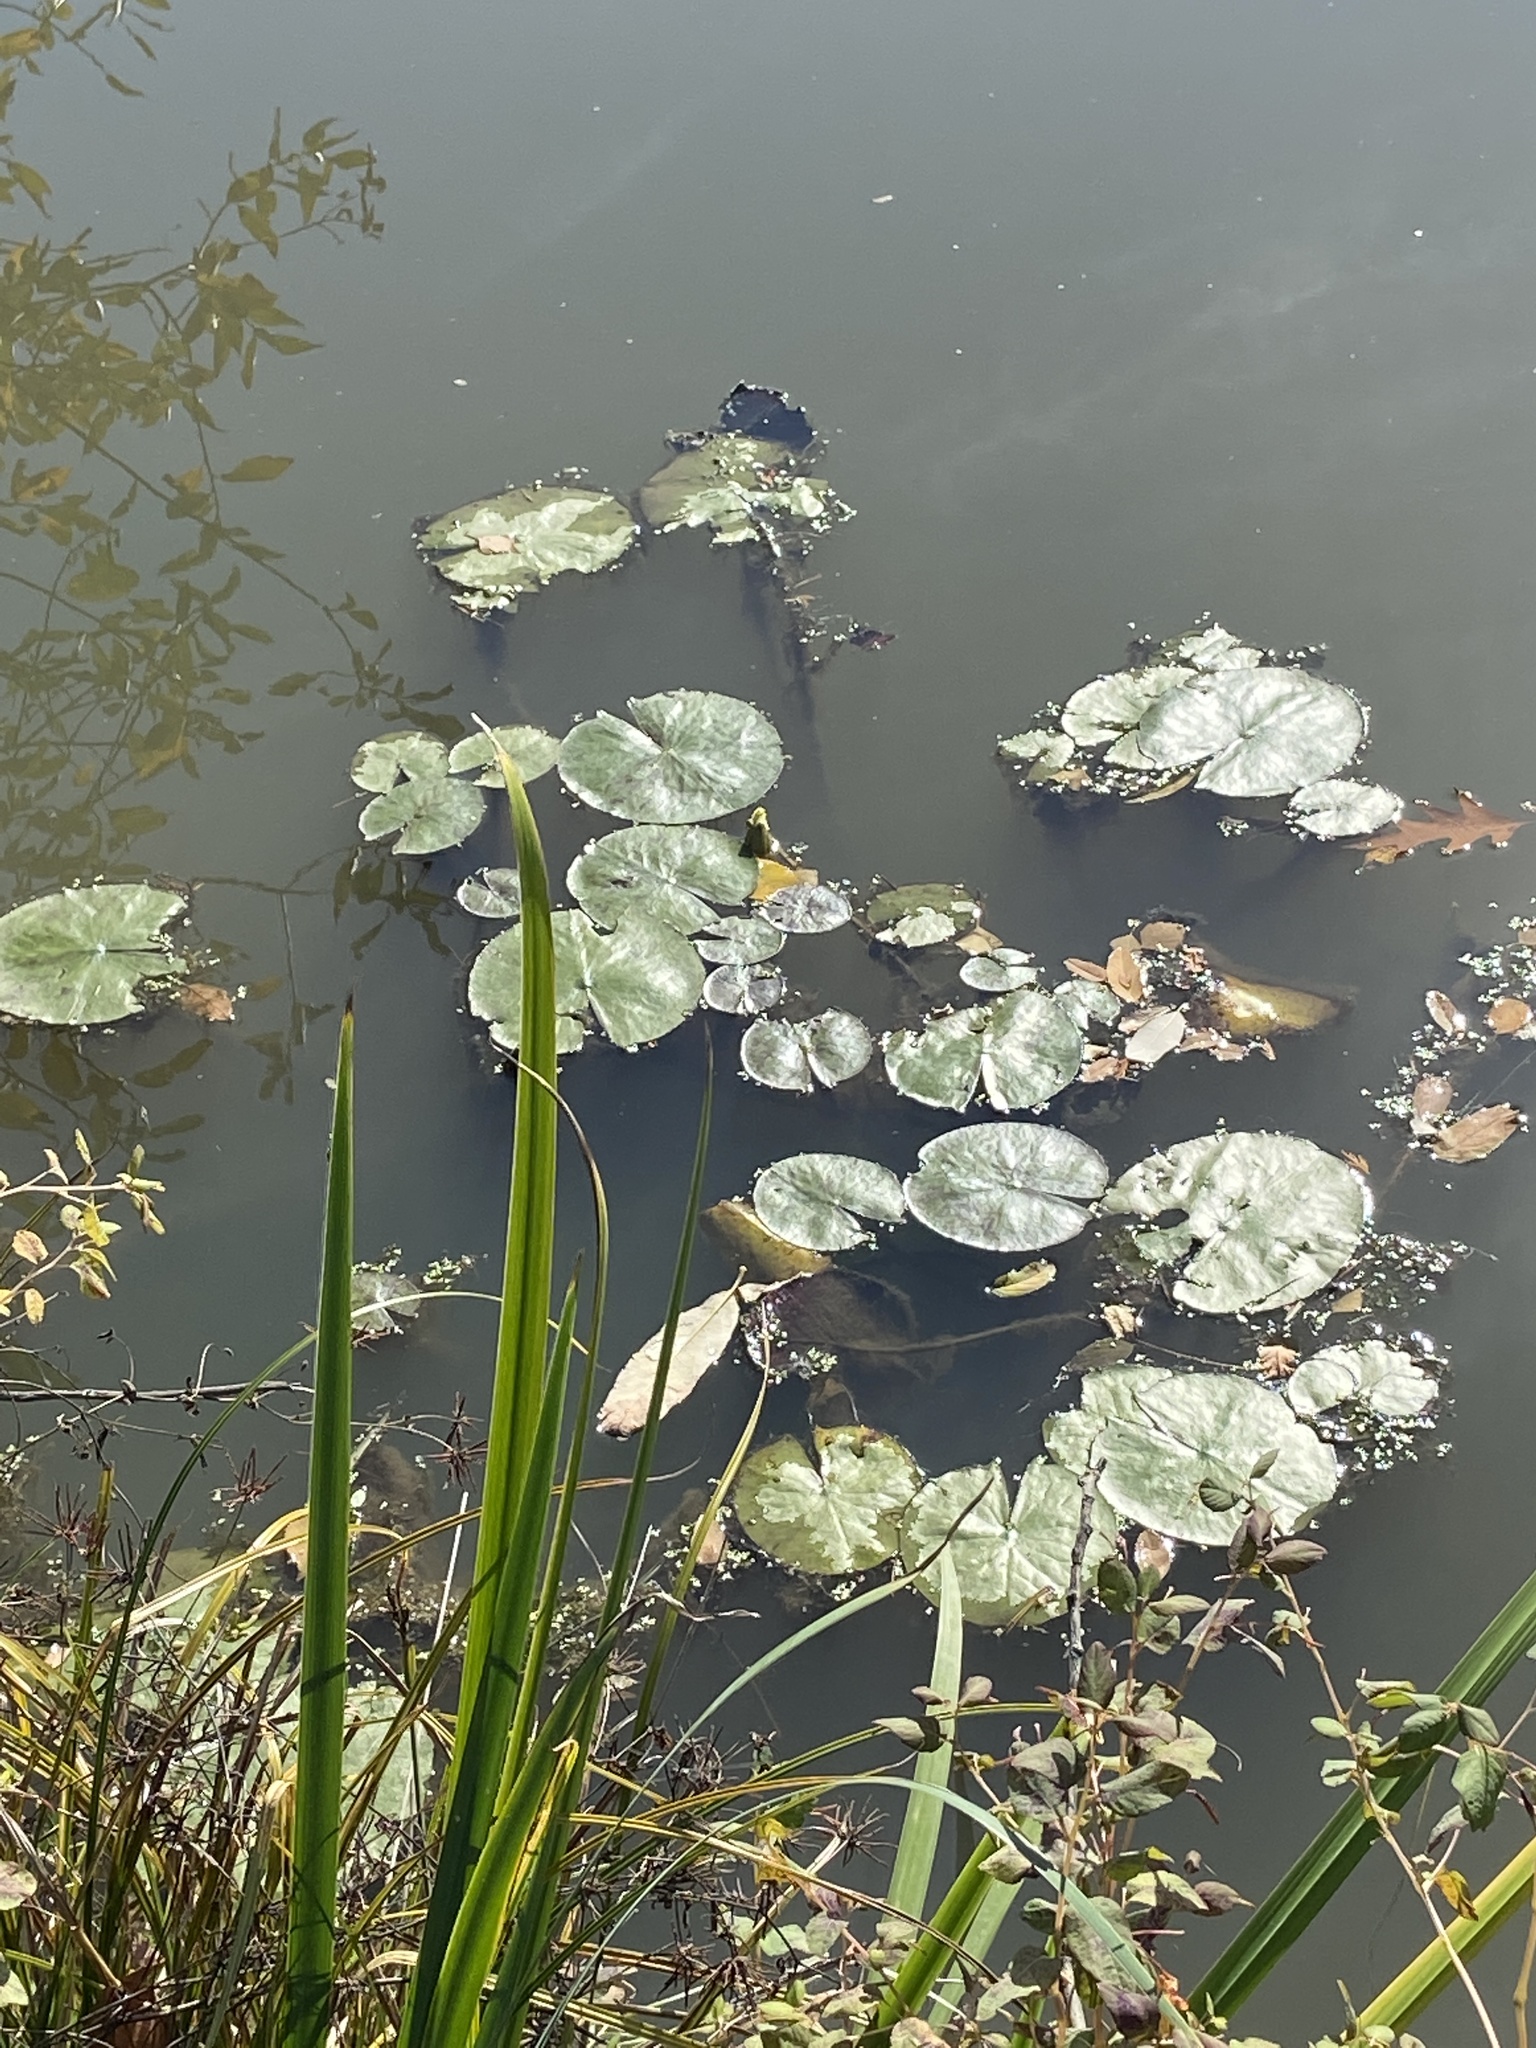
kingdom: Plantae
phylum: Tracheophyta
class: Magnoliopsida
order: Nymphaeales
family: Nymphaeaceae
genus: Nymphaea
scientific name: Nymphaea odorata
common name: Fragrant water-lily
